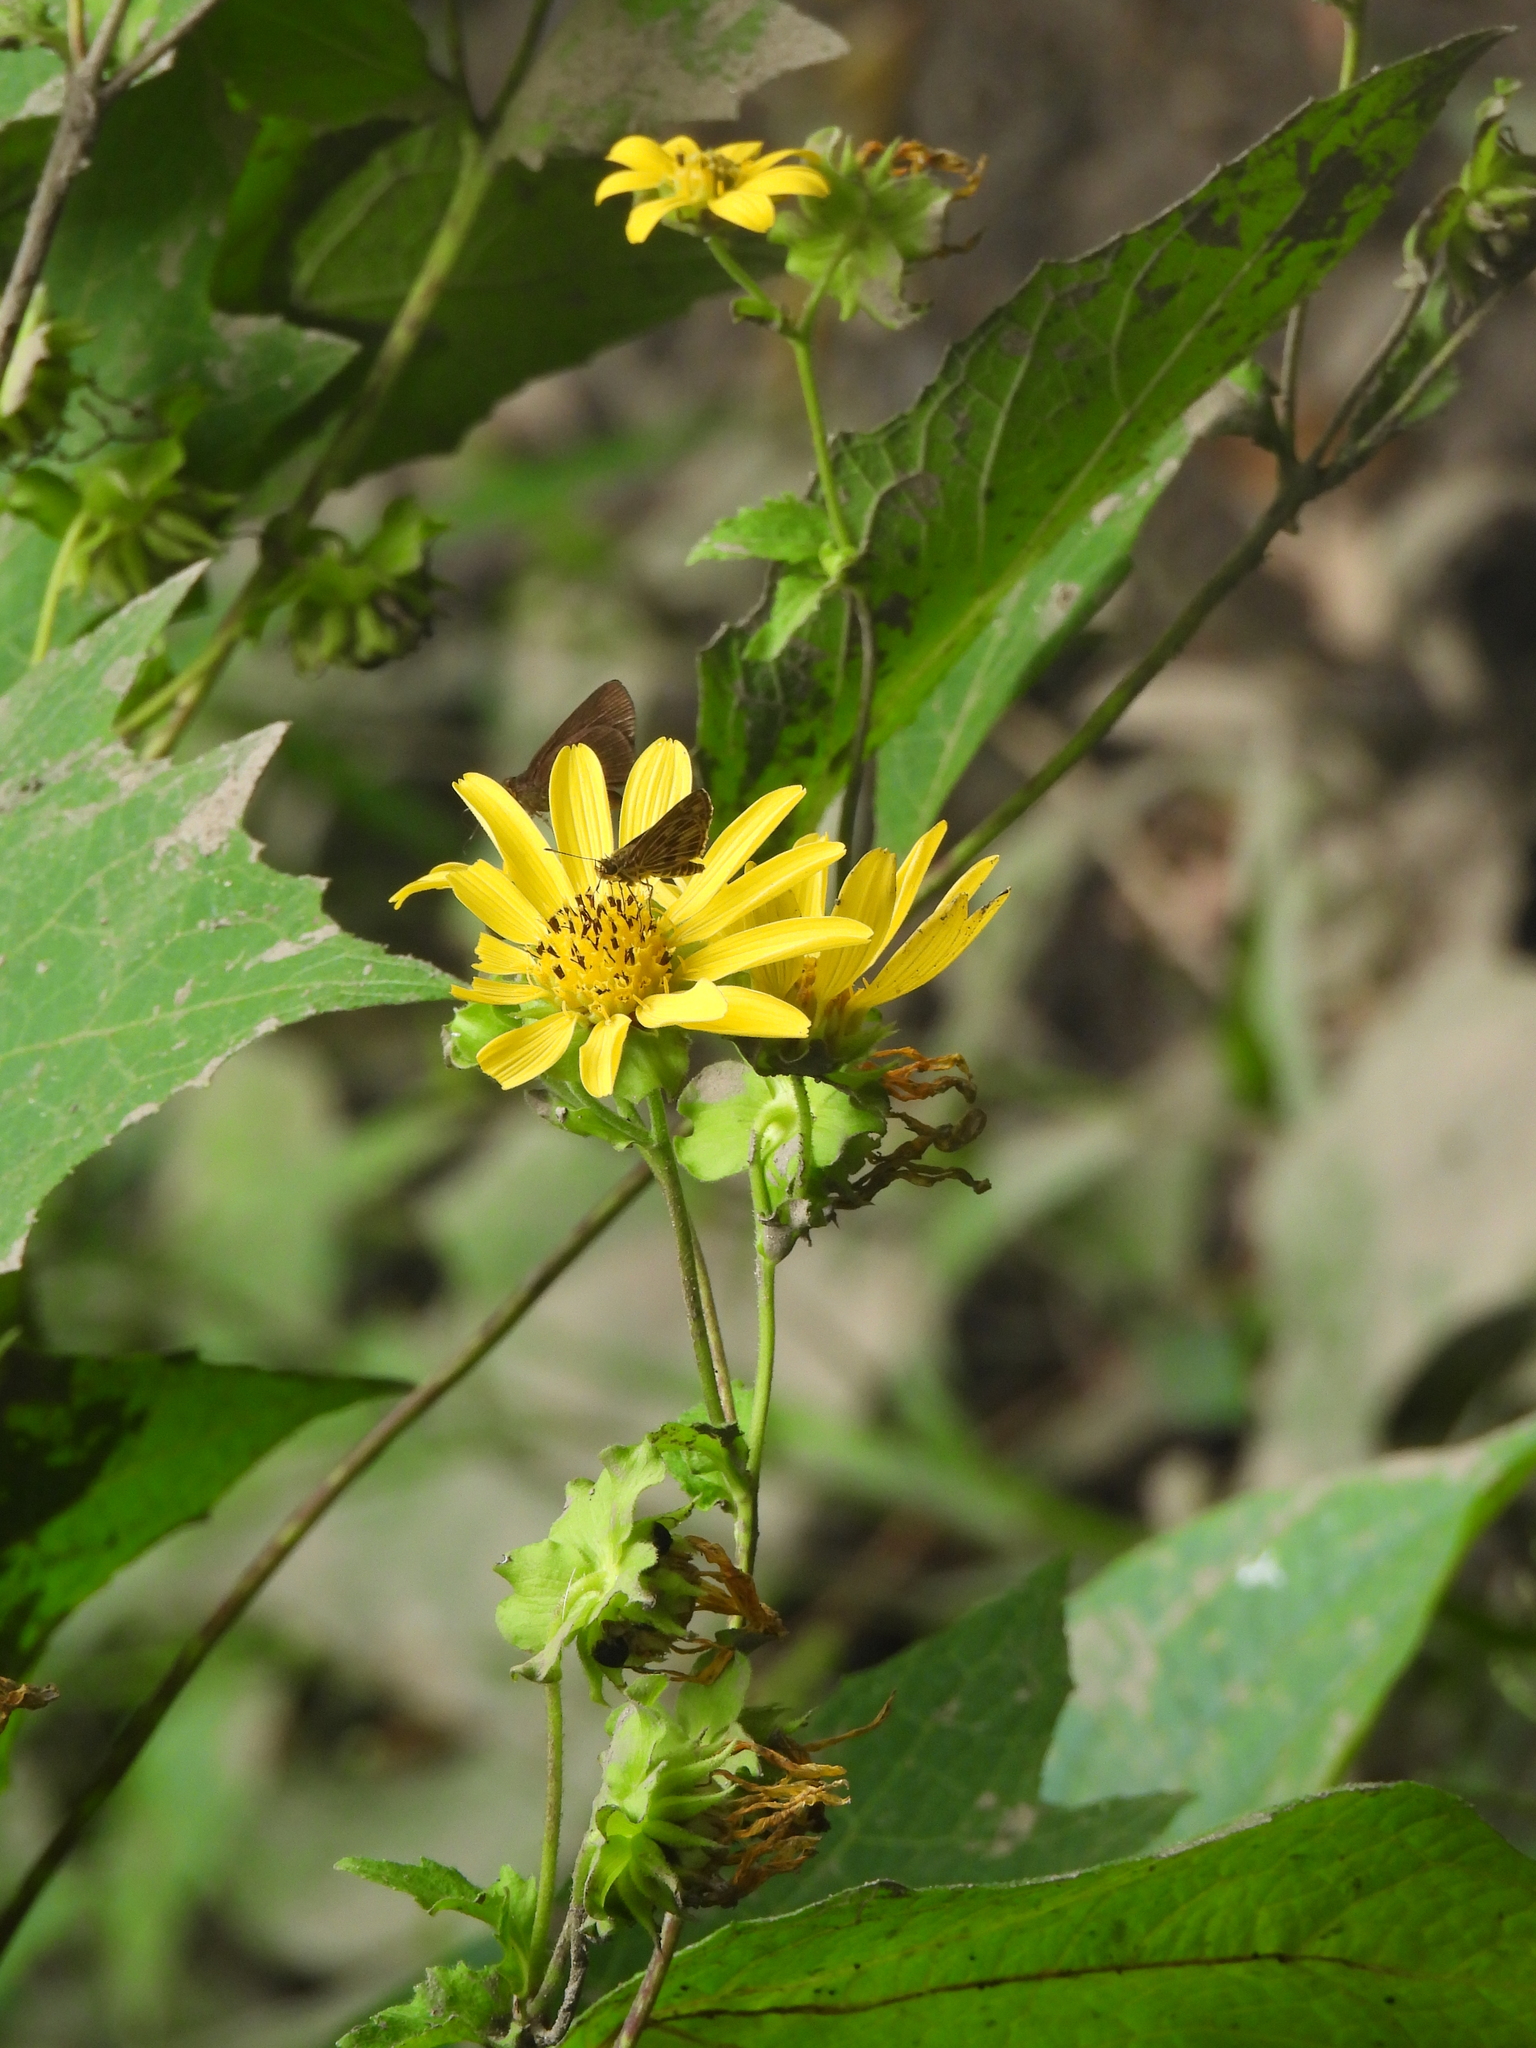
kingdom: Plantae
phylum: Tracheophyta
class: Magnoliopsida
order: Asterales
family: Asteraceae
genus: Smallanthus
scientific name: Smallanthus maculatus
